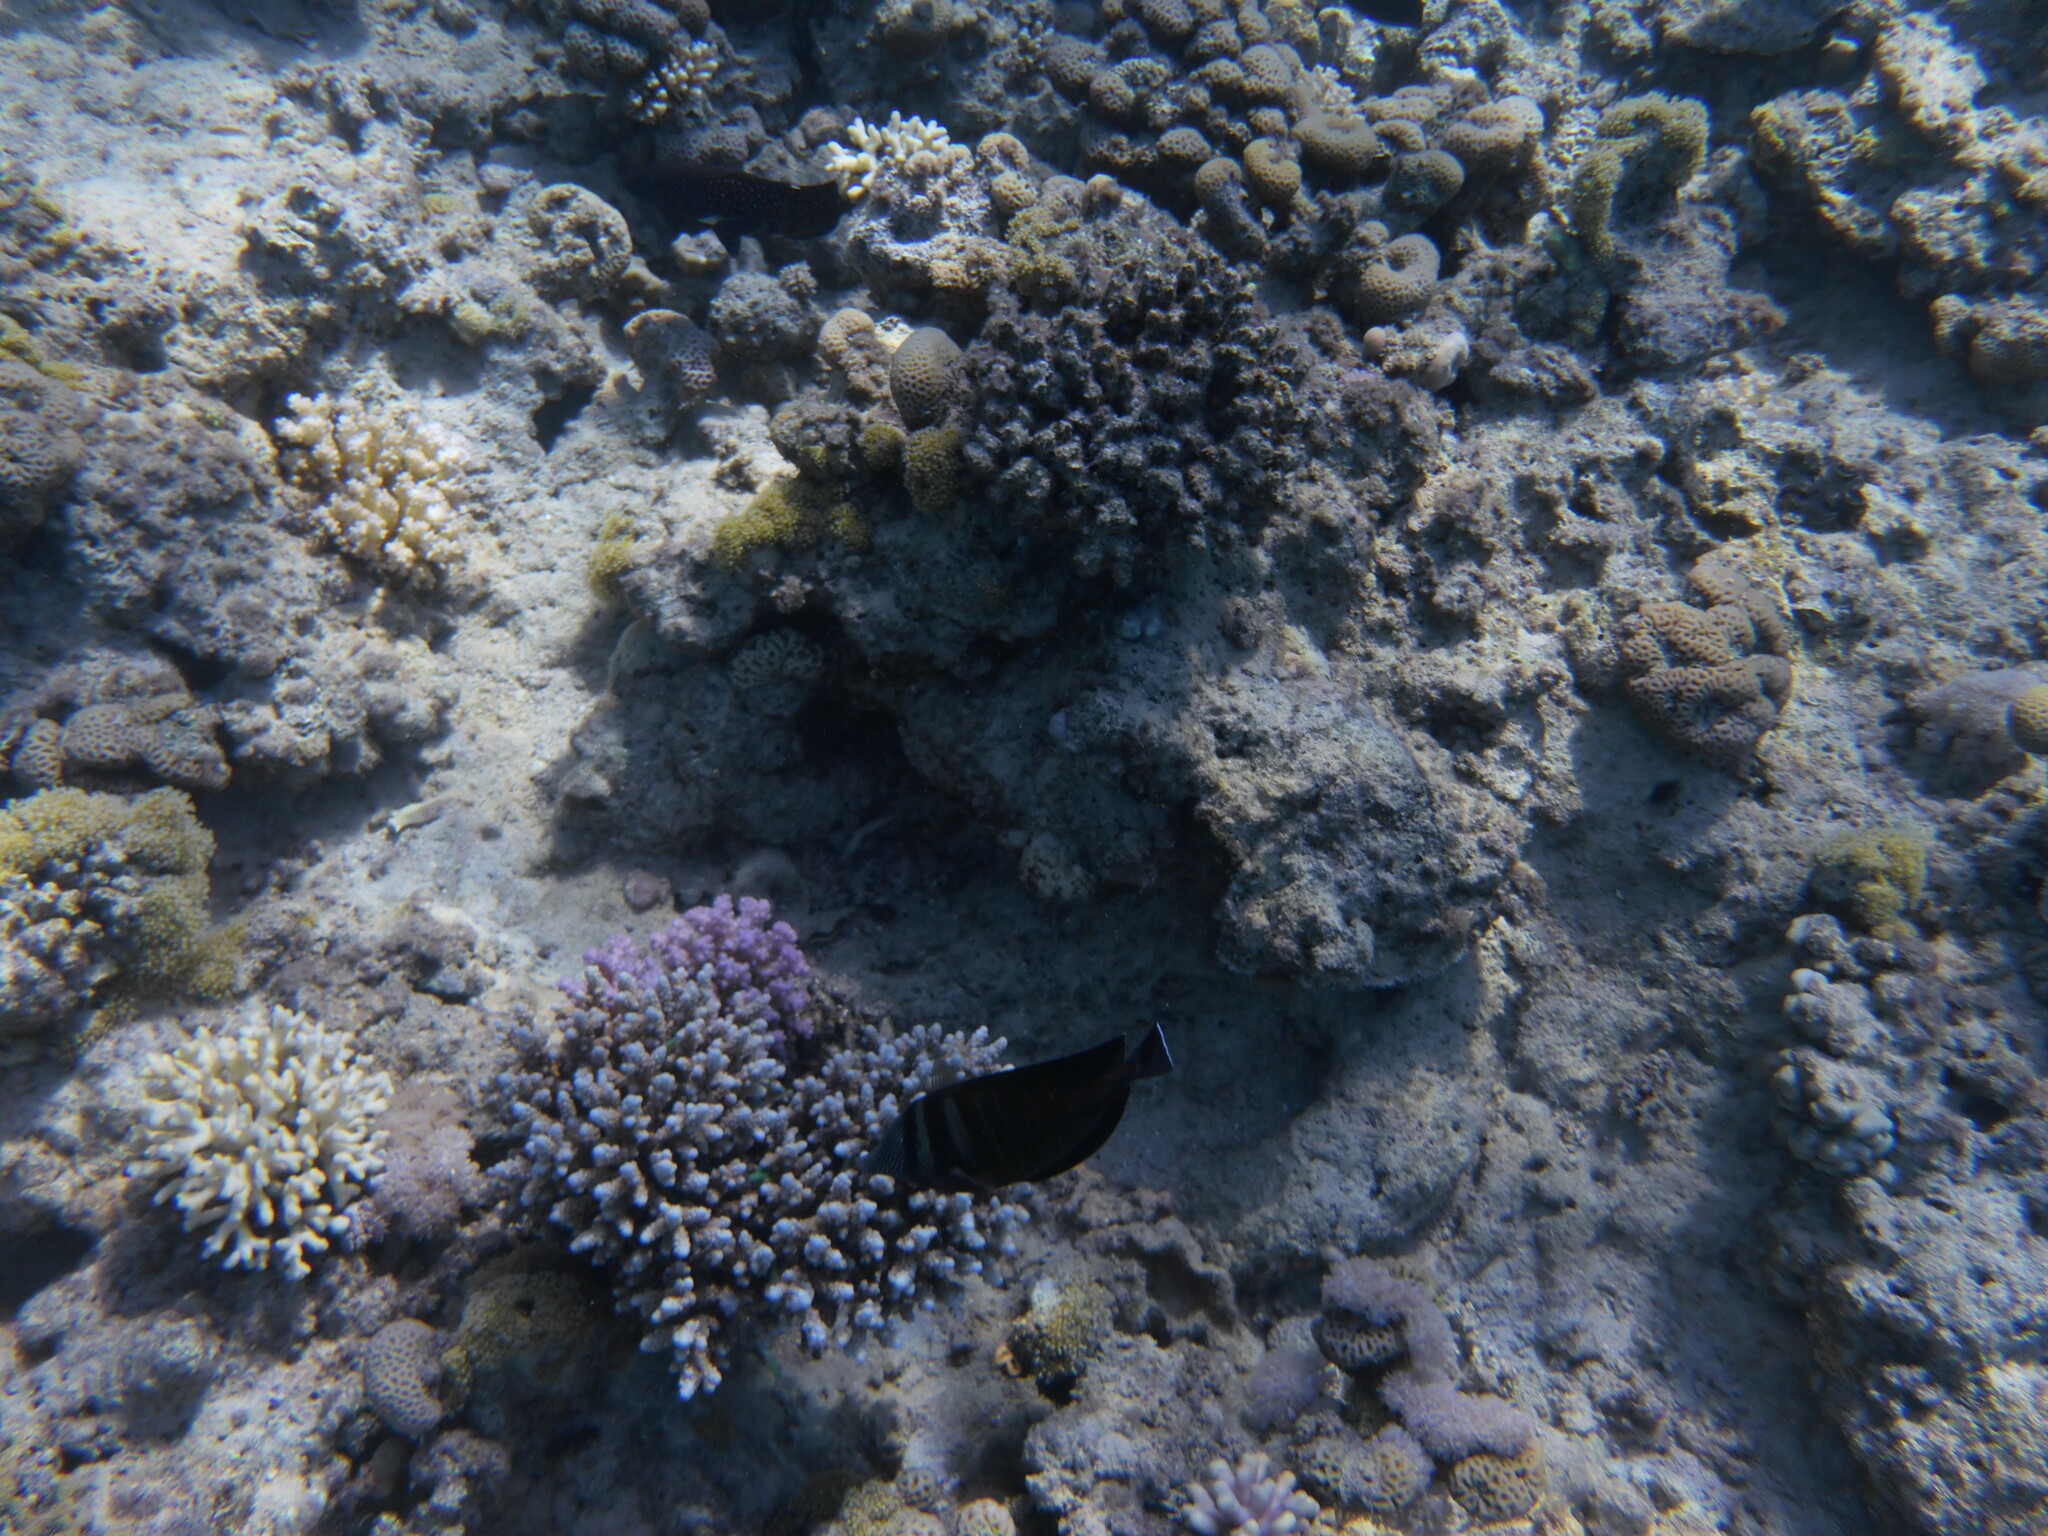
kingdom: Animalia
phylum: Chordata
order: Perciformes
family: Acanthuridae
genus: Zebrasoma
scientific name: Zebrasoma desjardinii
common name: Desjardin's sailfin tang
